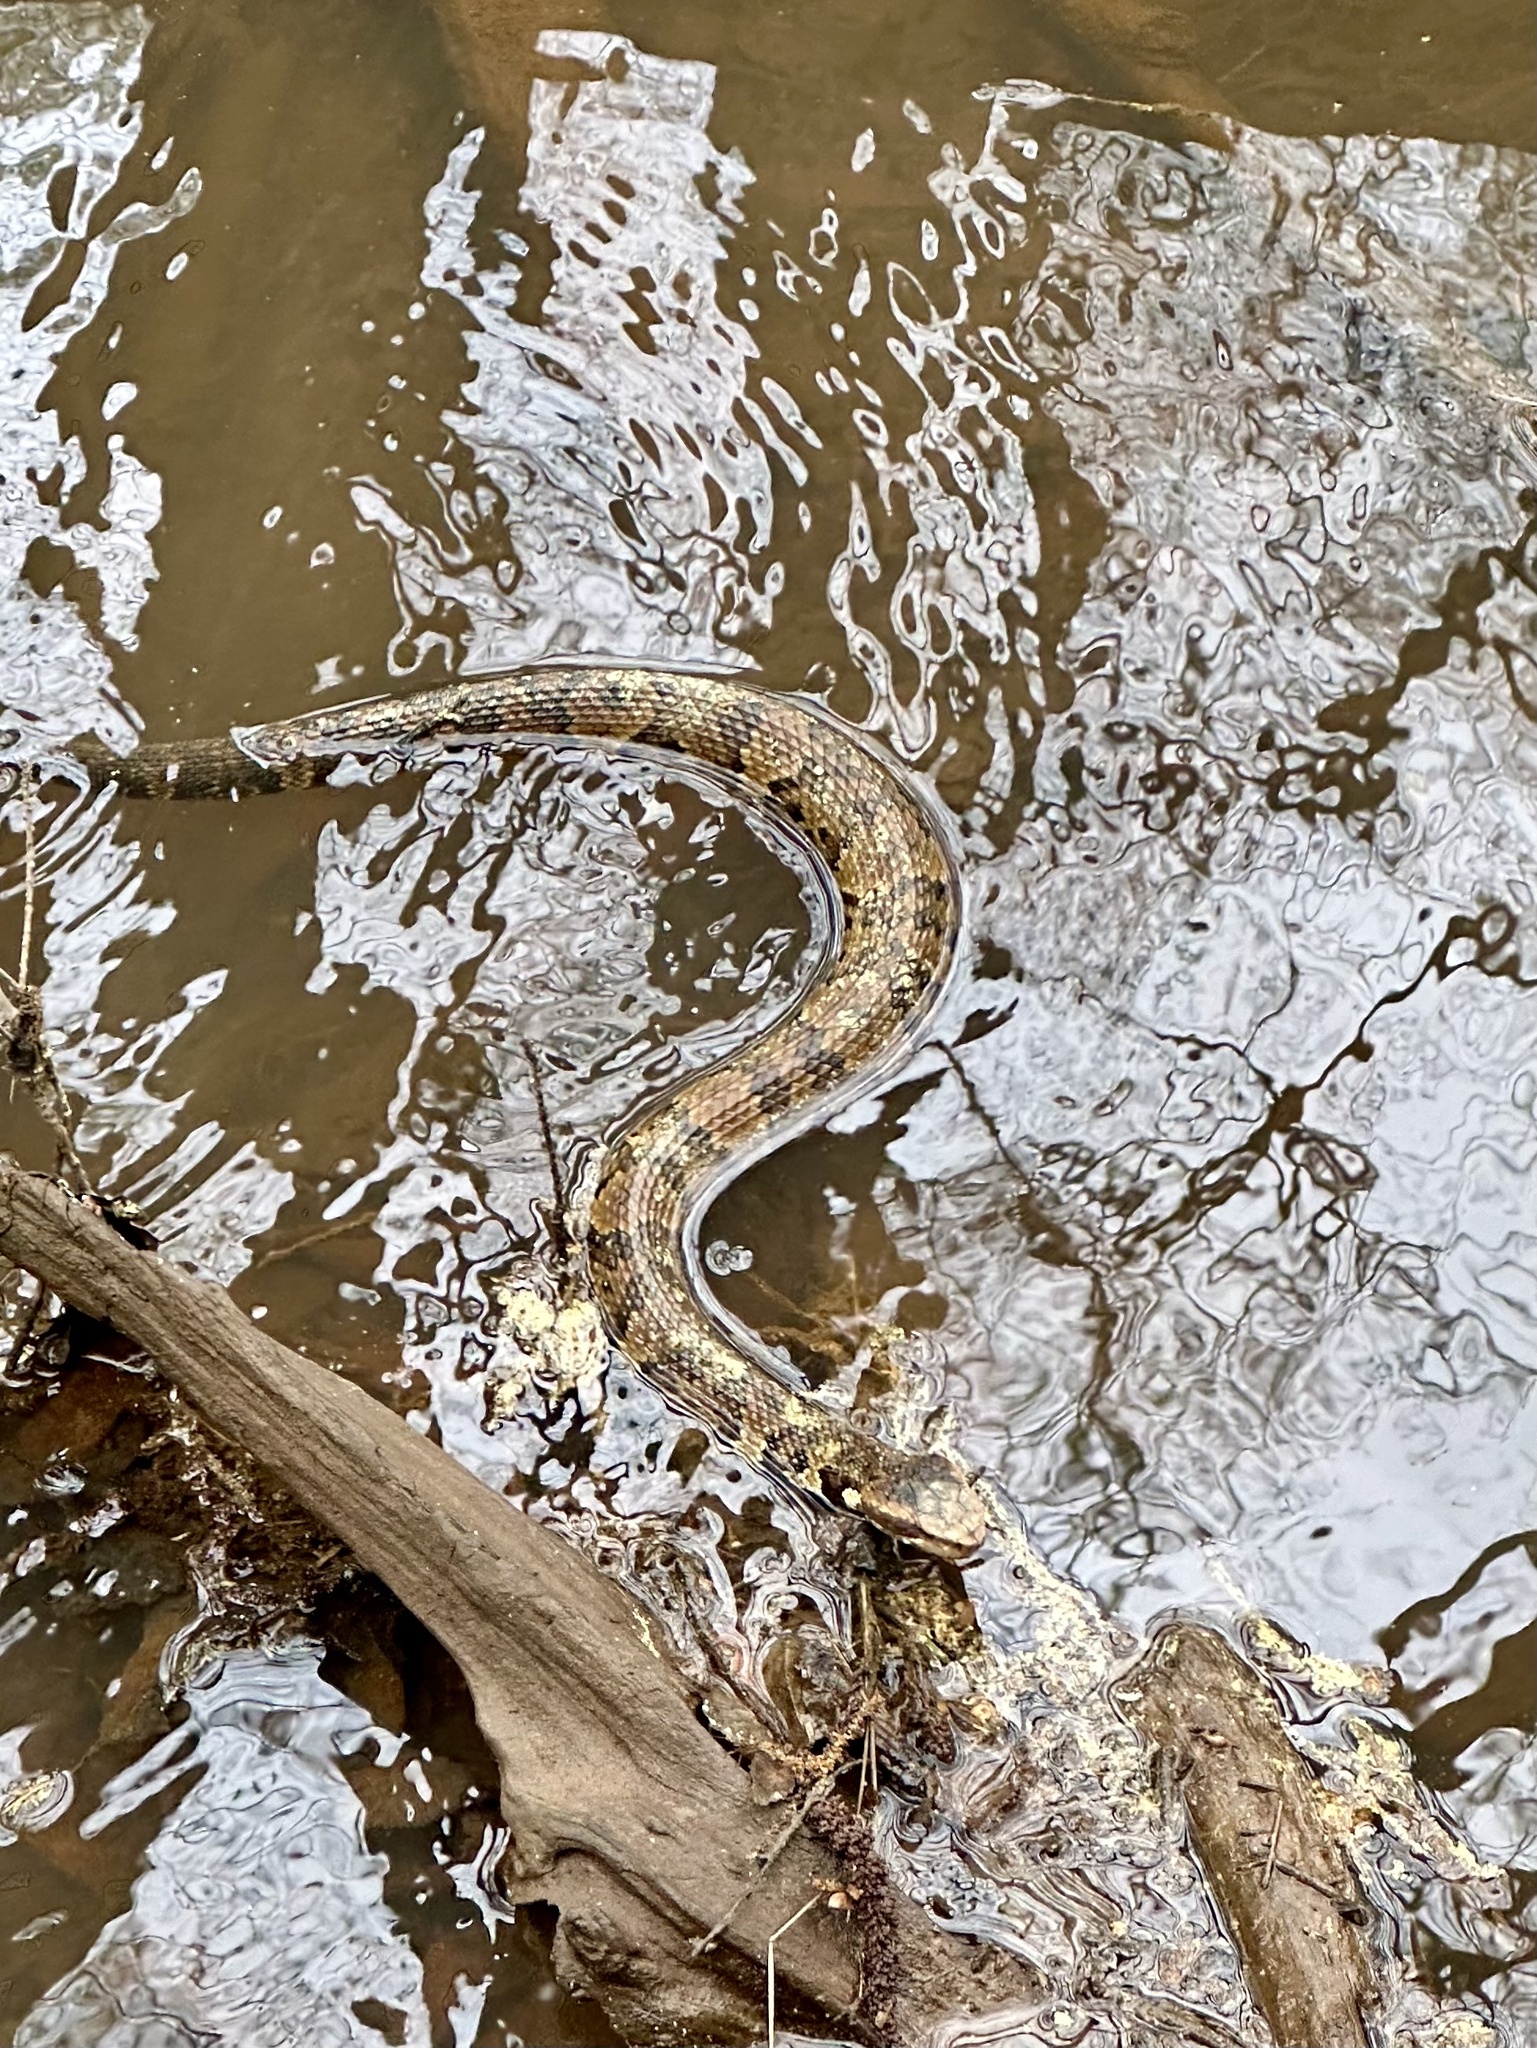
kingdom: Animalia
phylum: Chordata
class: Squamata
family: Viperidae
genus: Agkistrodon
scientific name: Agkistrodon piscivorus
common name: Cottonmouth
